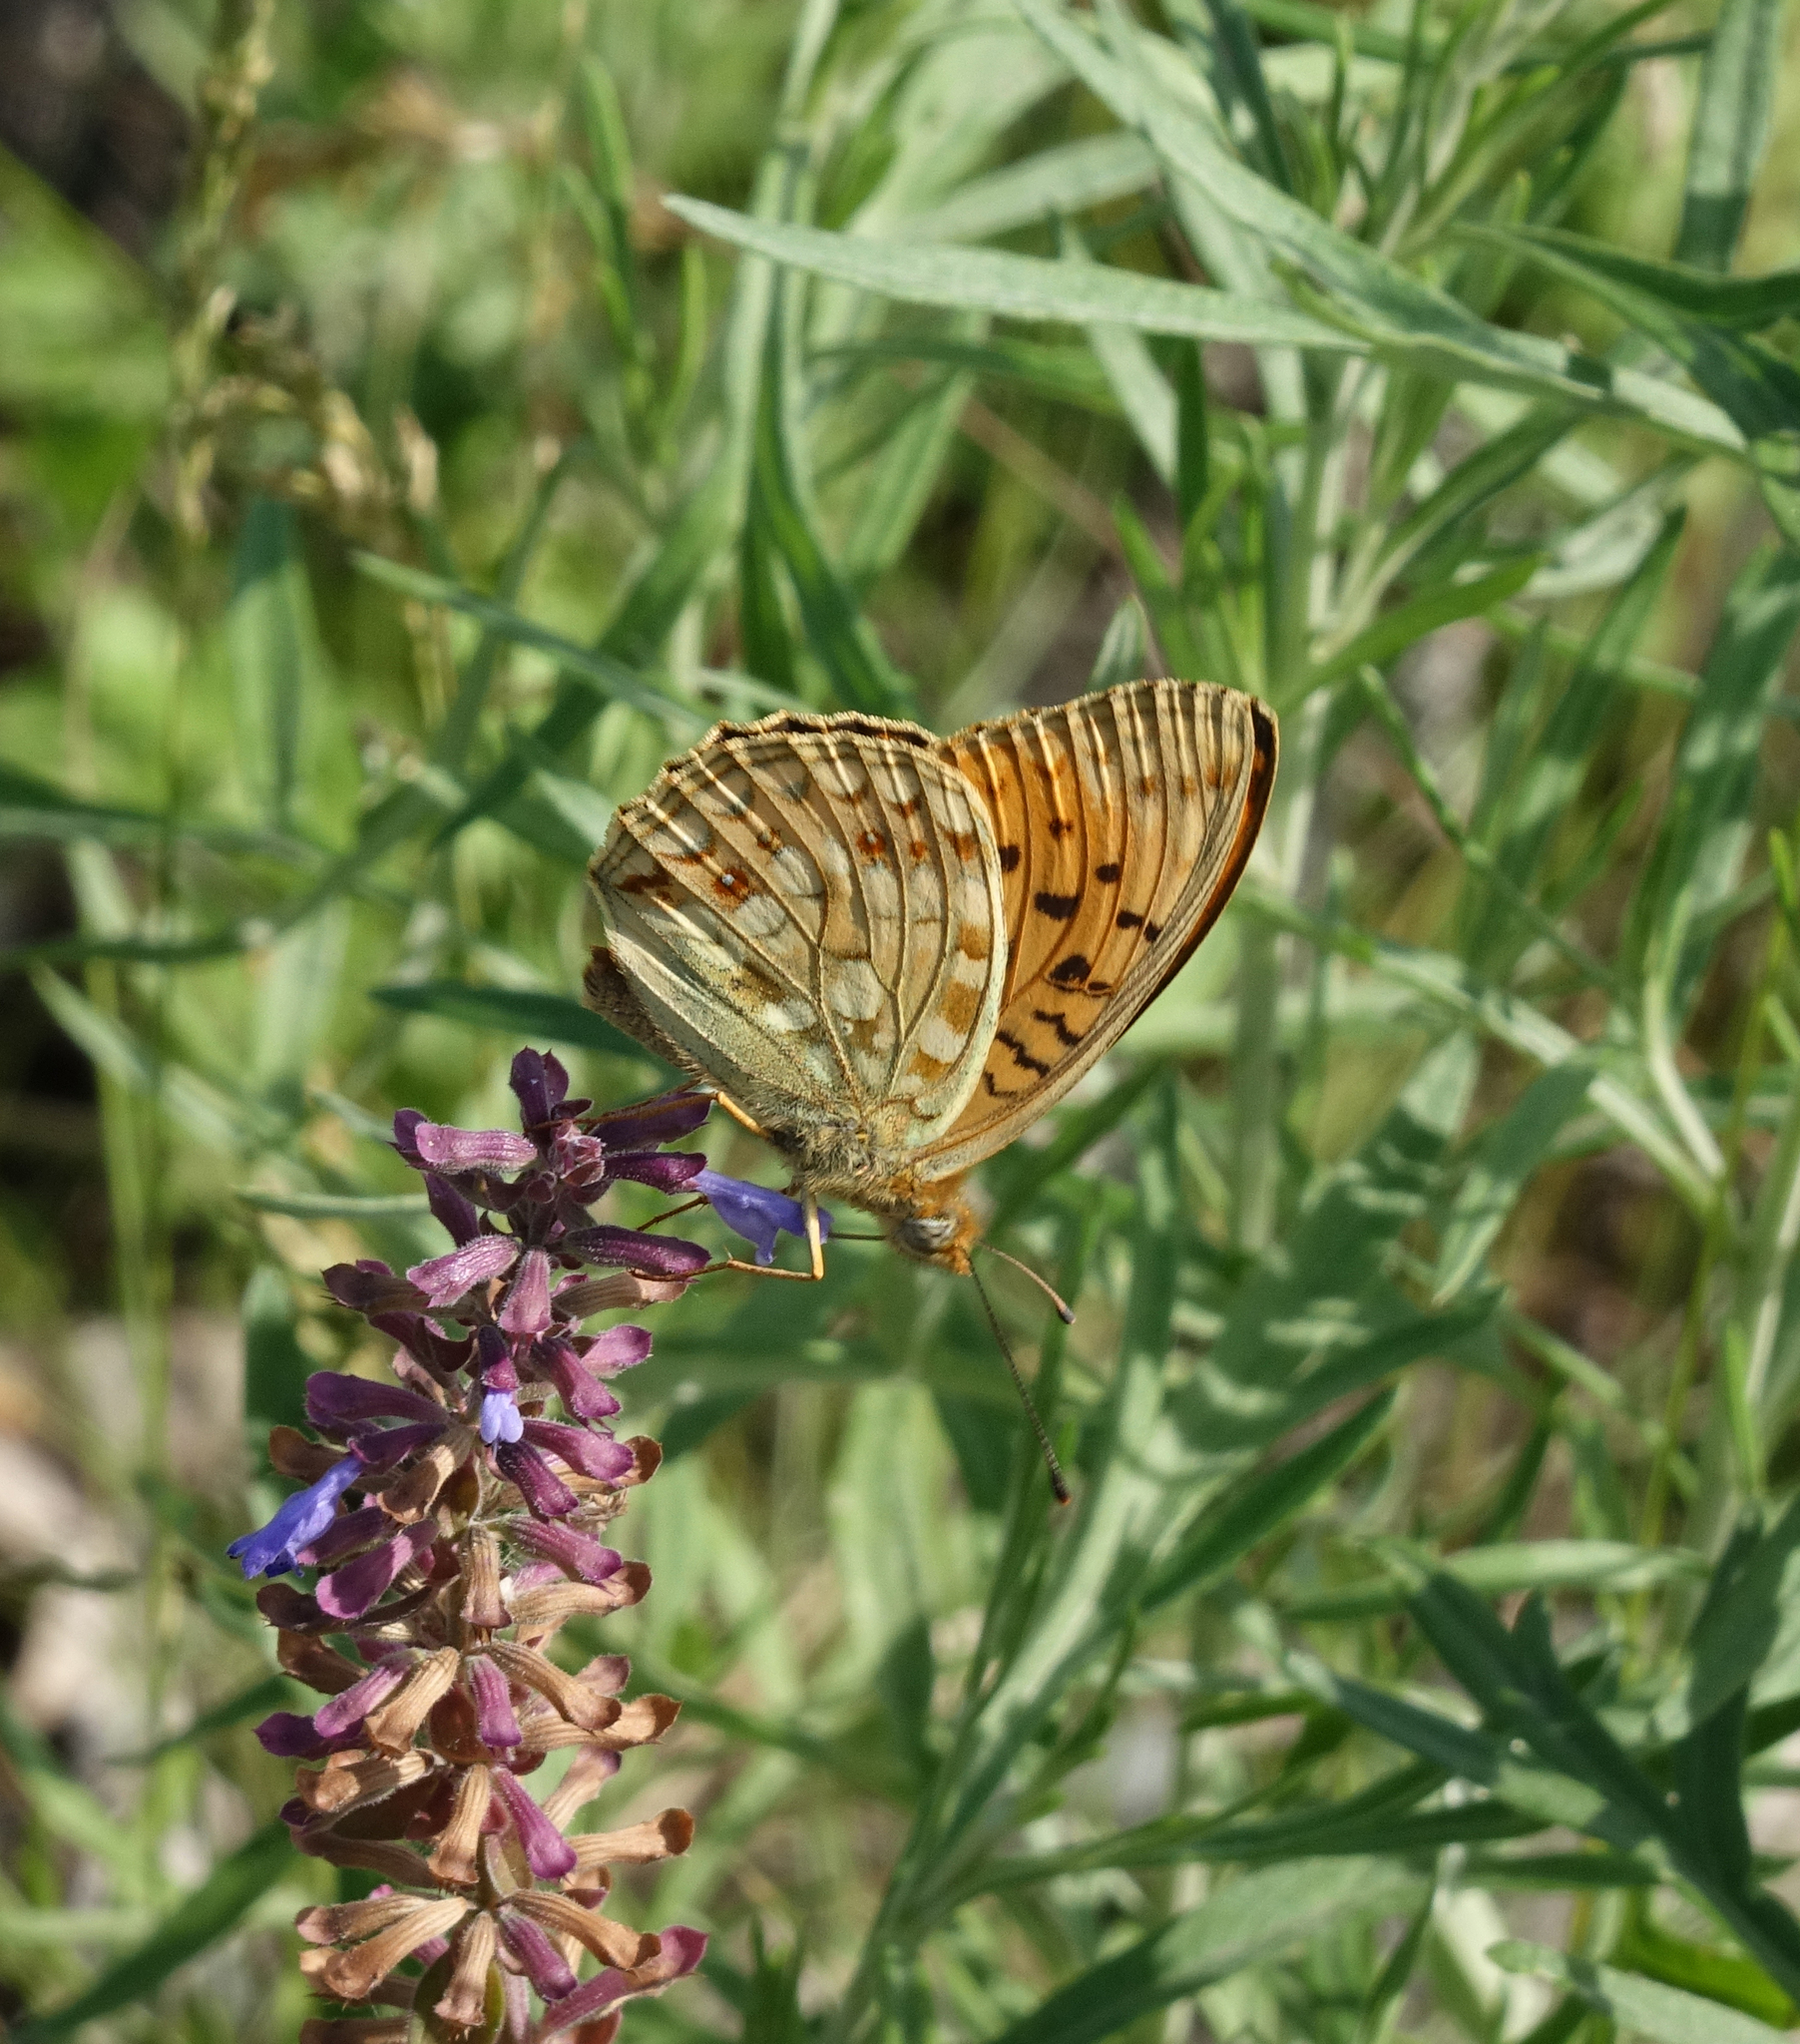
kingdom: Plantae
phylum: Tracheophyta
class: Magnoliopsida
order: Lamiales
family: Lamiaceae
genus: Dracocephalum
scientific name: Dracocephalum nutans
